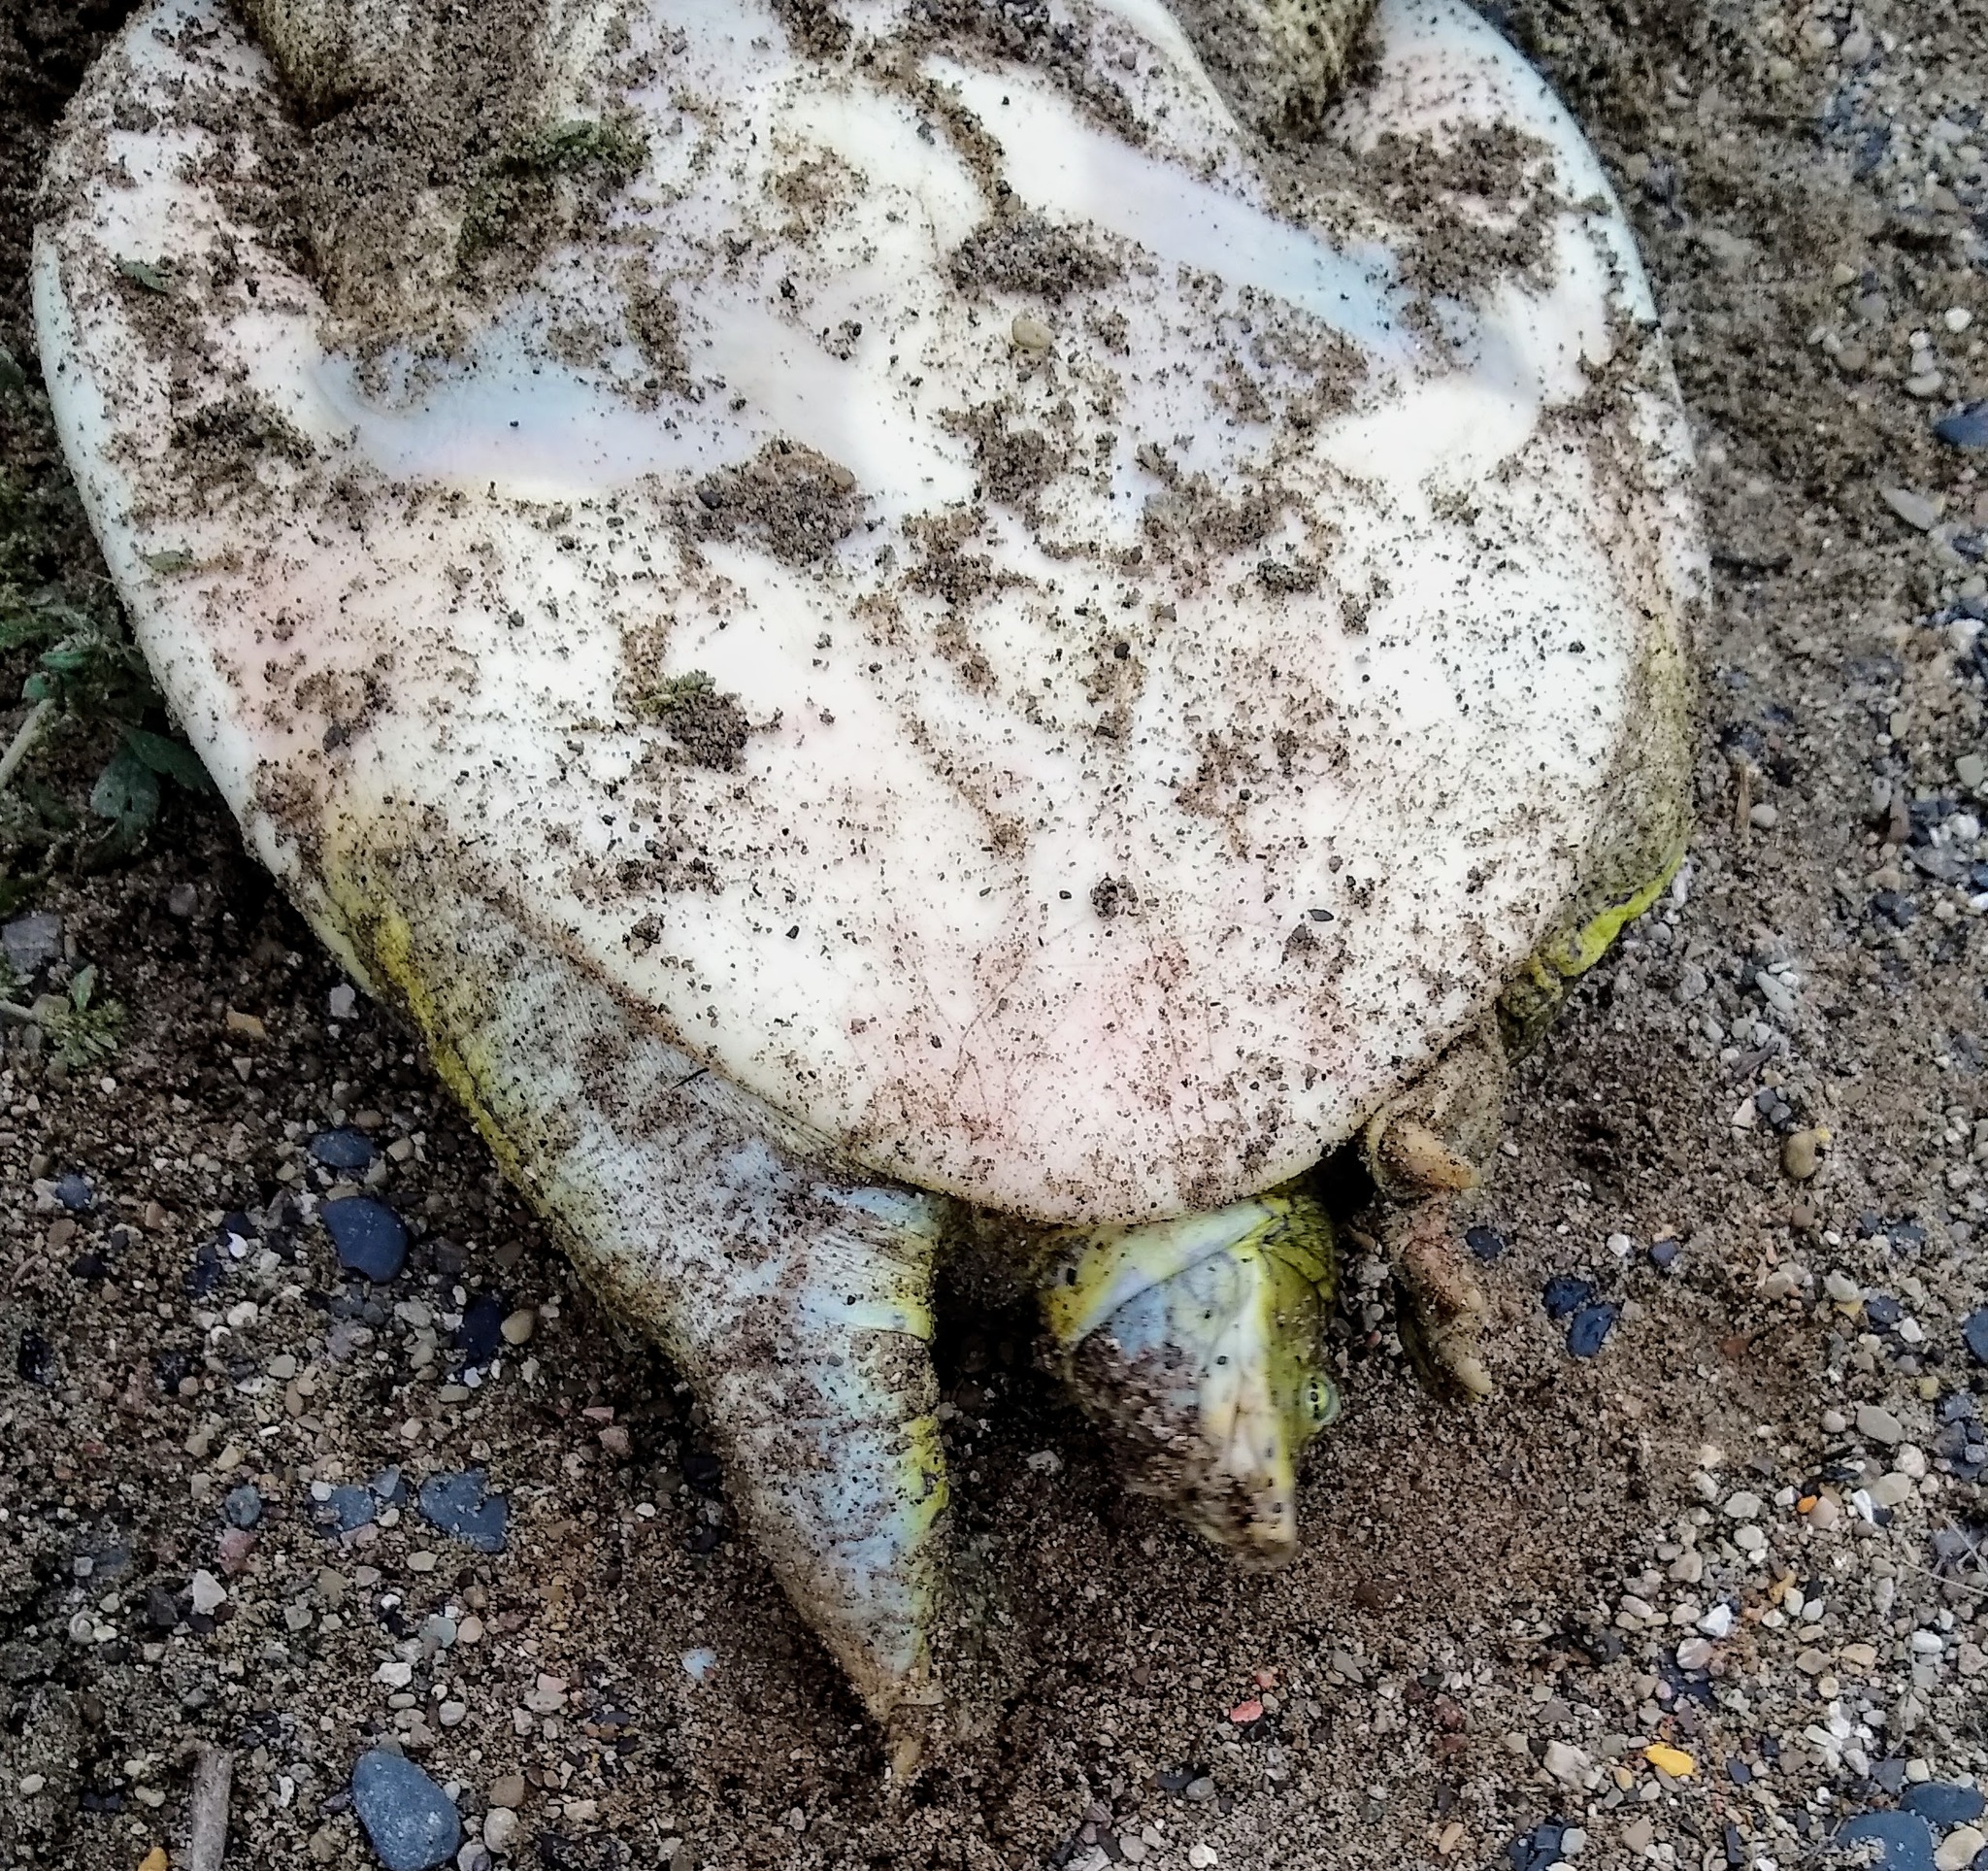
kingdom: Animalia
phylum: Chordata
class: Testudines
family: Trionychidae
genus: Apalone
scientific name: Apalone spinifera
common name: Spiny softshell turtle
